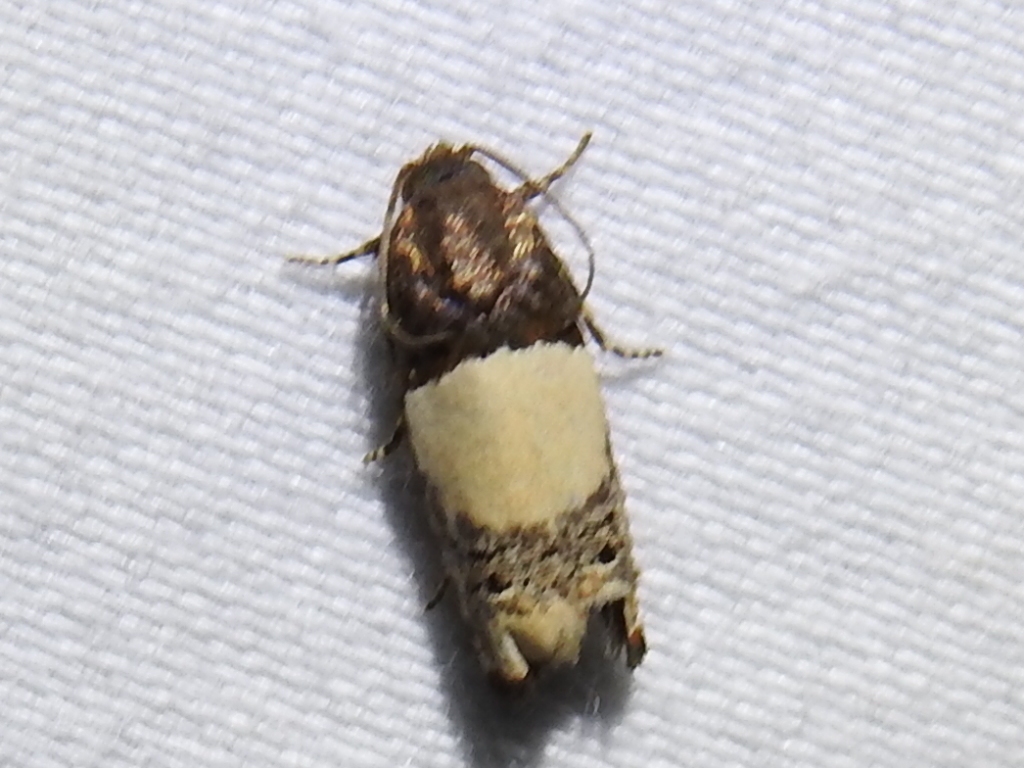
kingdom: Animalia
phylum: Arthropoda
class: Insecta
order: Lepidoptera
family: Tortricidae
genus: Epiblema
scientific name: Epiblema scudderiana
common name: Goldenrod gall moth
